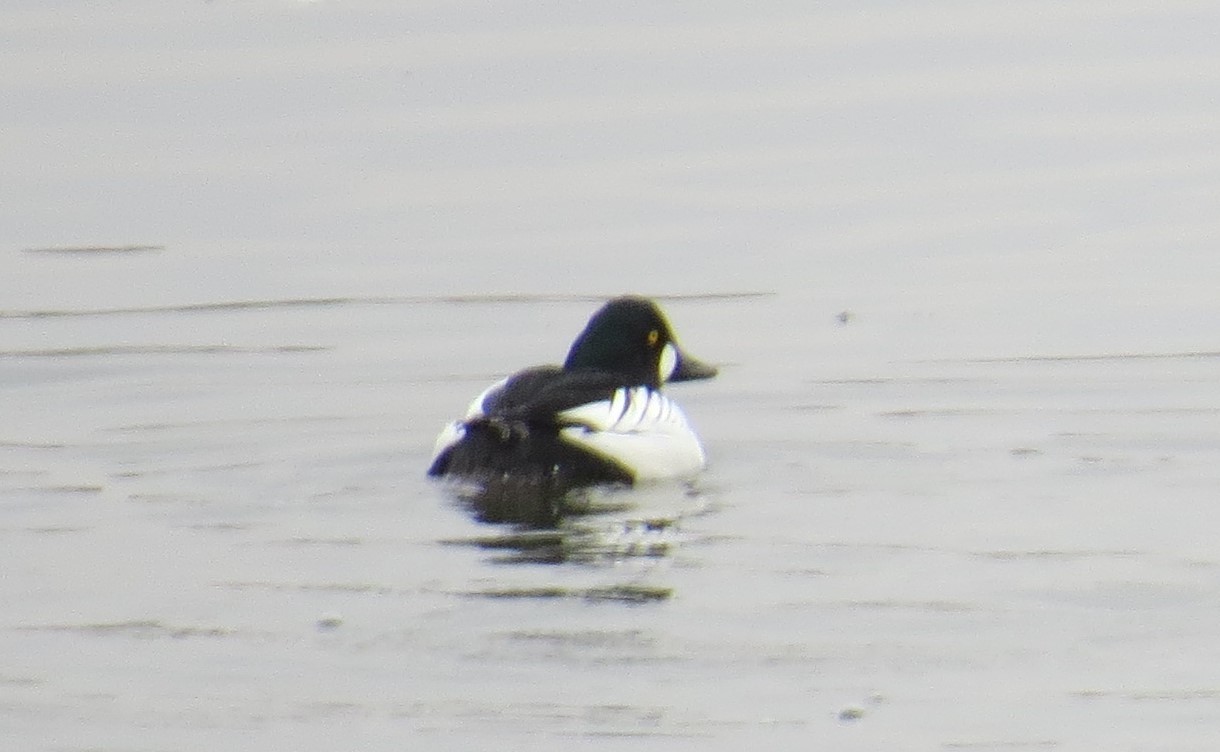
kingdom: Animalia
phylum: Chordata
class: Aves
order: Anseriformes
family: Anatidae
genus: Bucephala
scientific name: Bucephala clangula
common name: Common goldeneye
